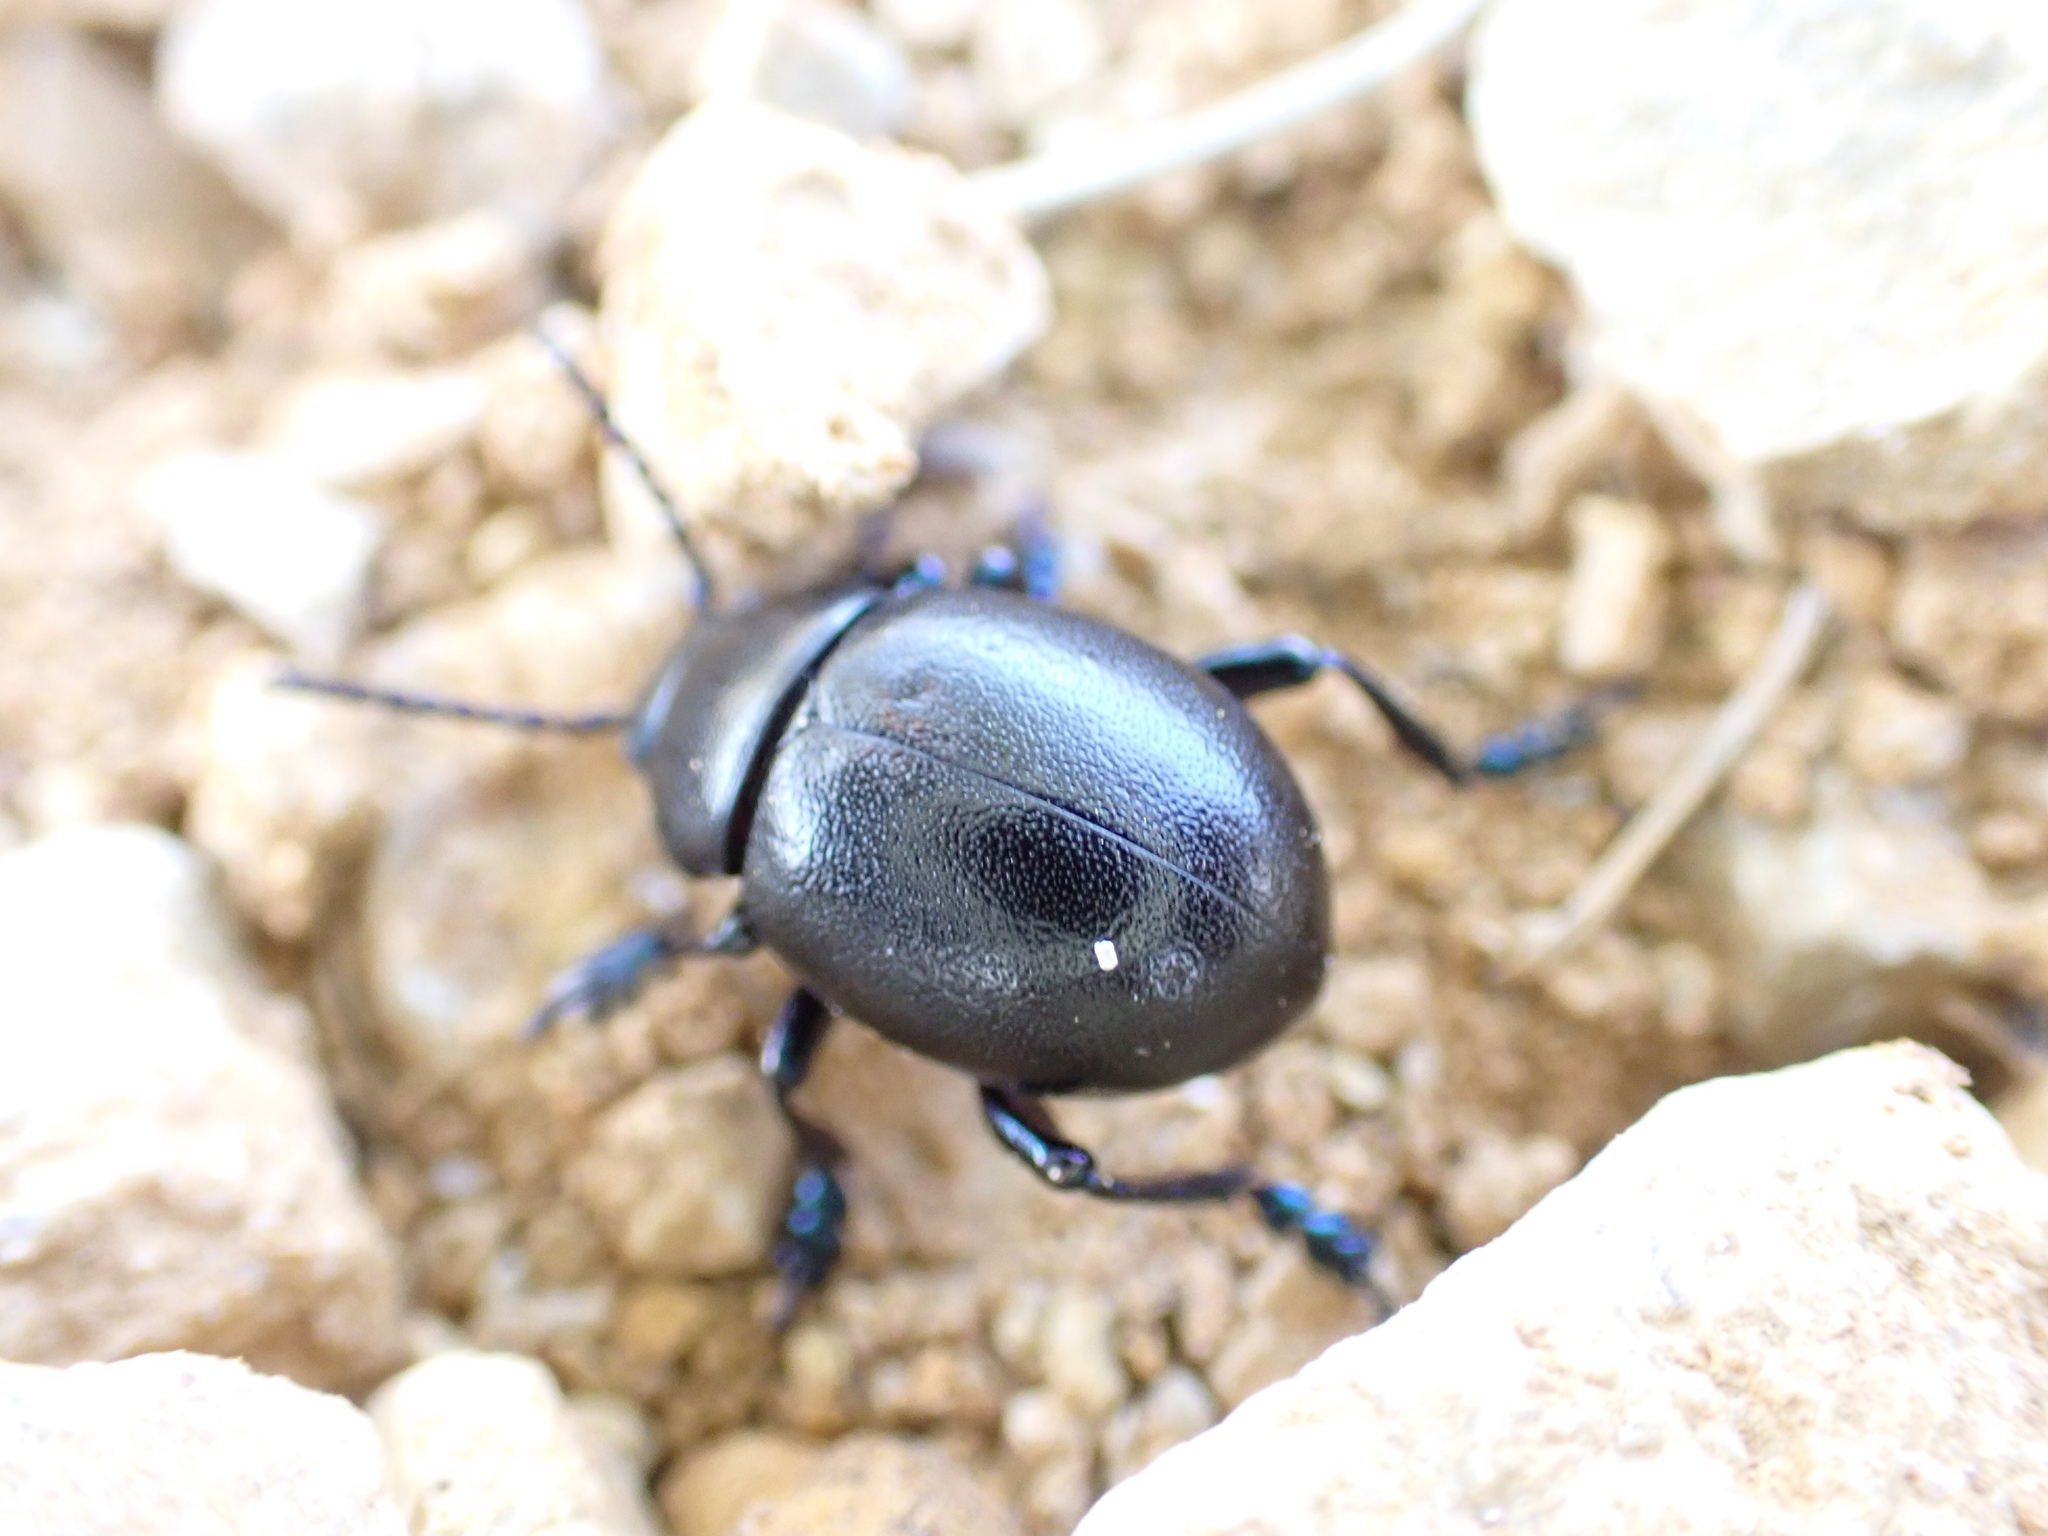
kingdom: Animalia
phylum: Arthropoda
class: Insecta
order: Coleoptera
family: Chrysomelidae
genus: Timarcha
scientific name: Timarcha goettingensis
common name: Small bloody-nosed beetle
